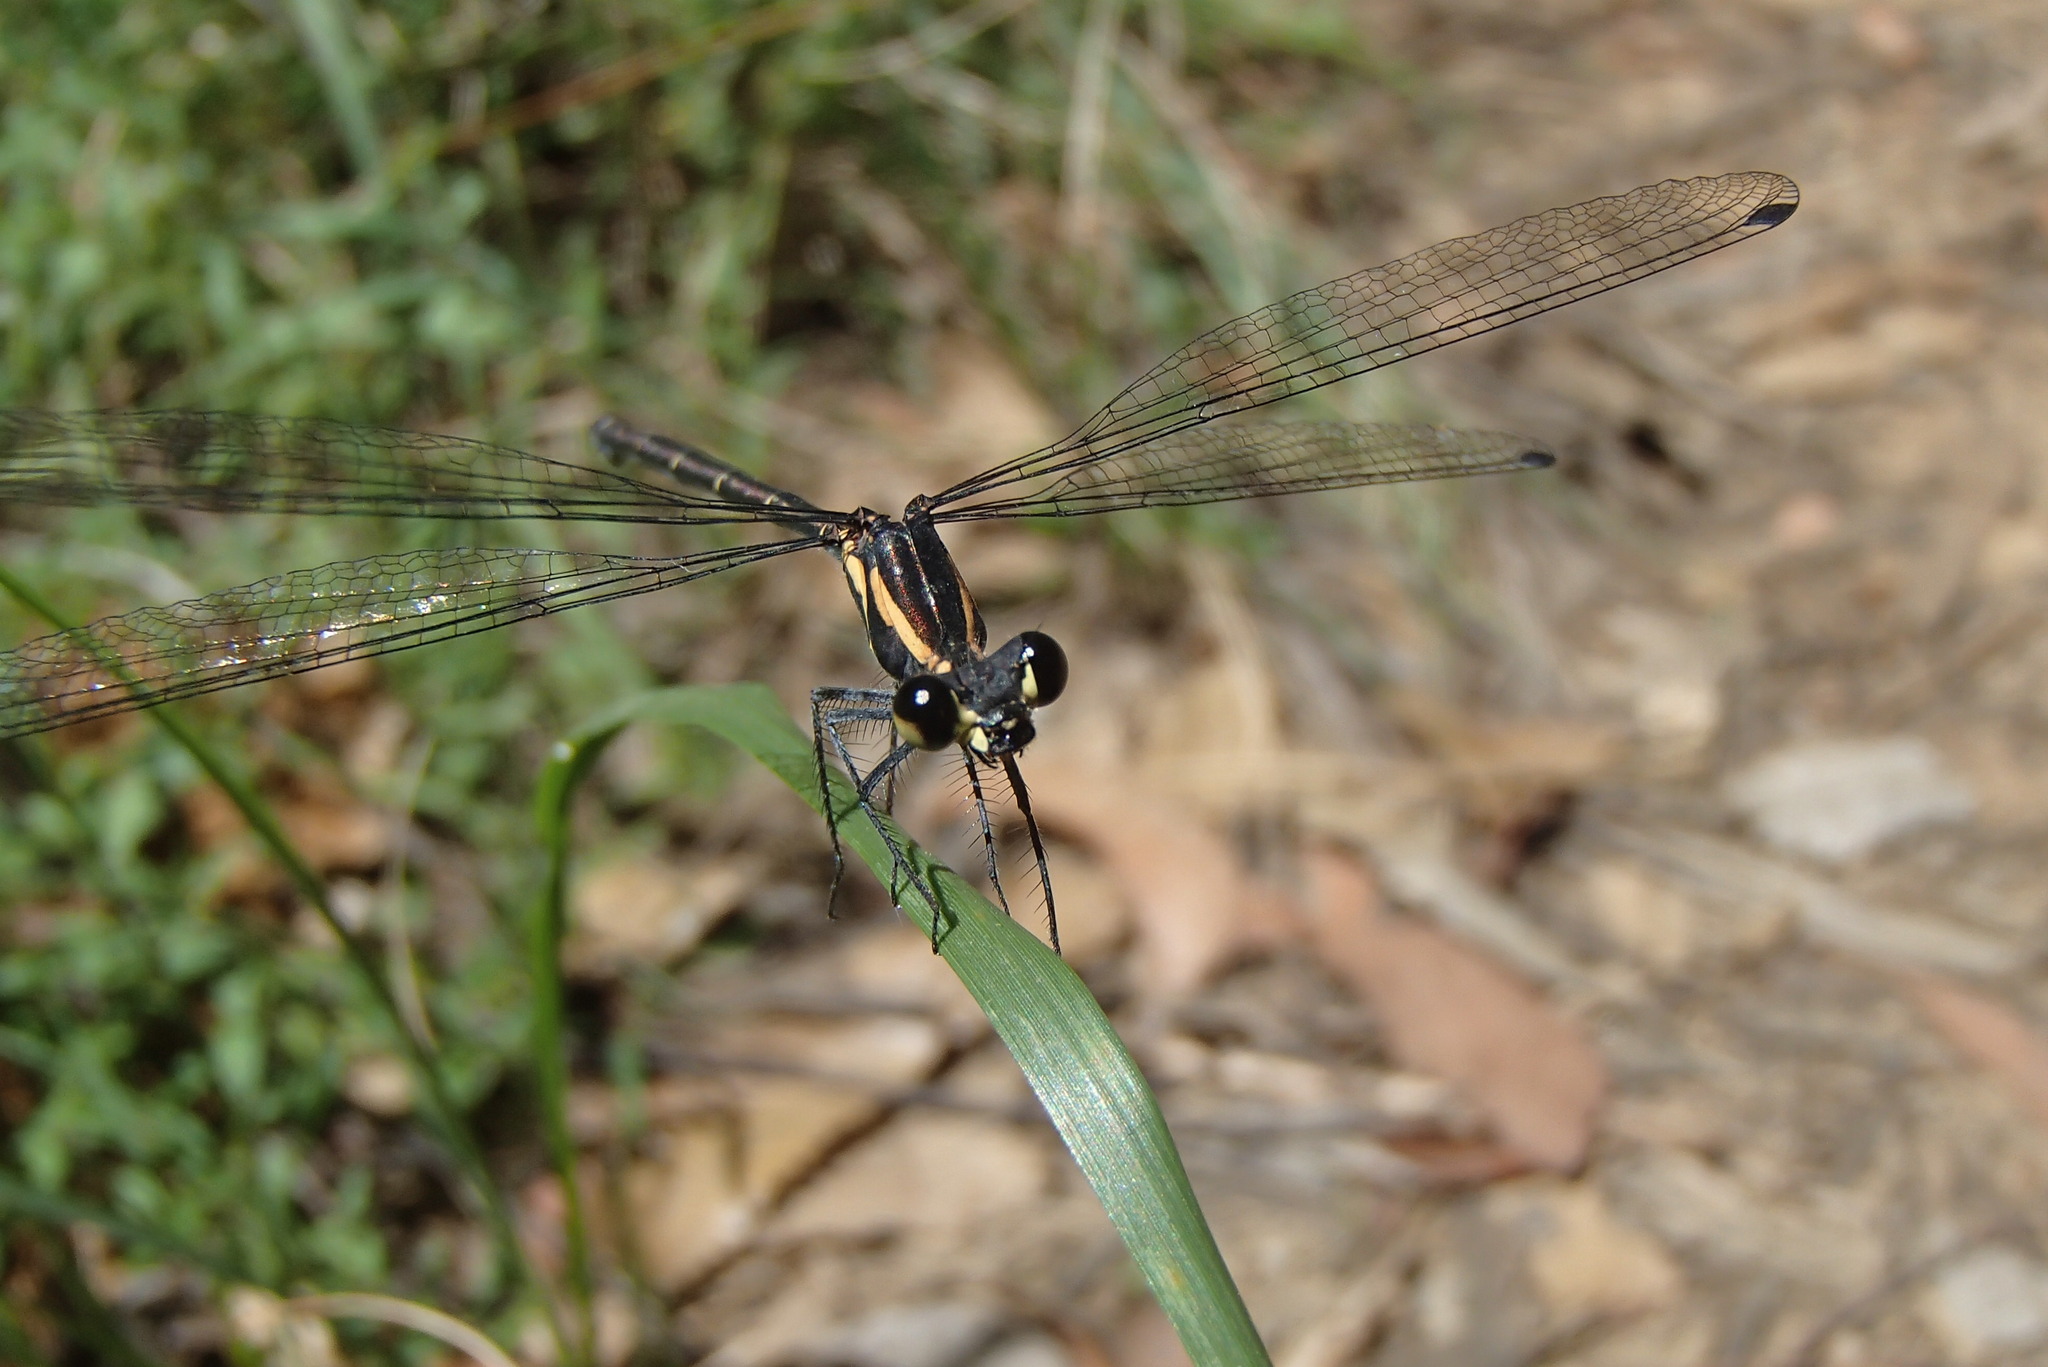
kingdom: Animalia
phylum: Arthropoda
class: Insecta
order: Odonata
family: Argiolestidae
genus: Austroargiolestes
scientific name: Austroargiolestes icteromelas
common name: Common flatwing
